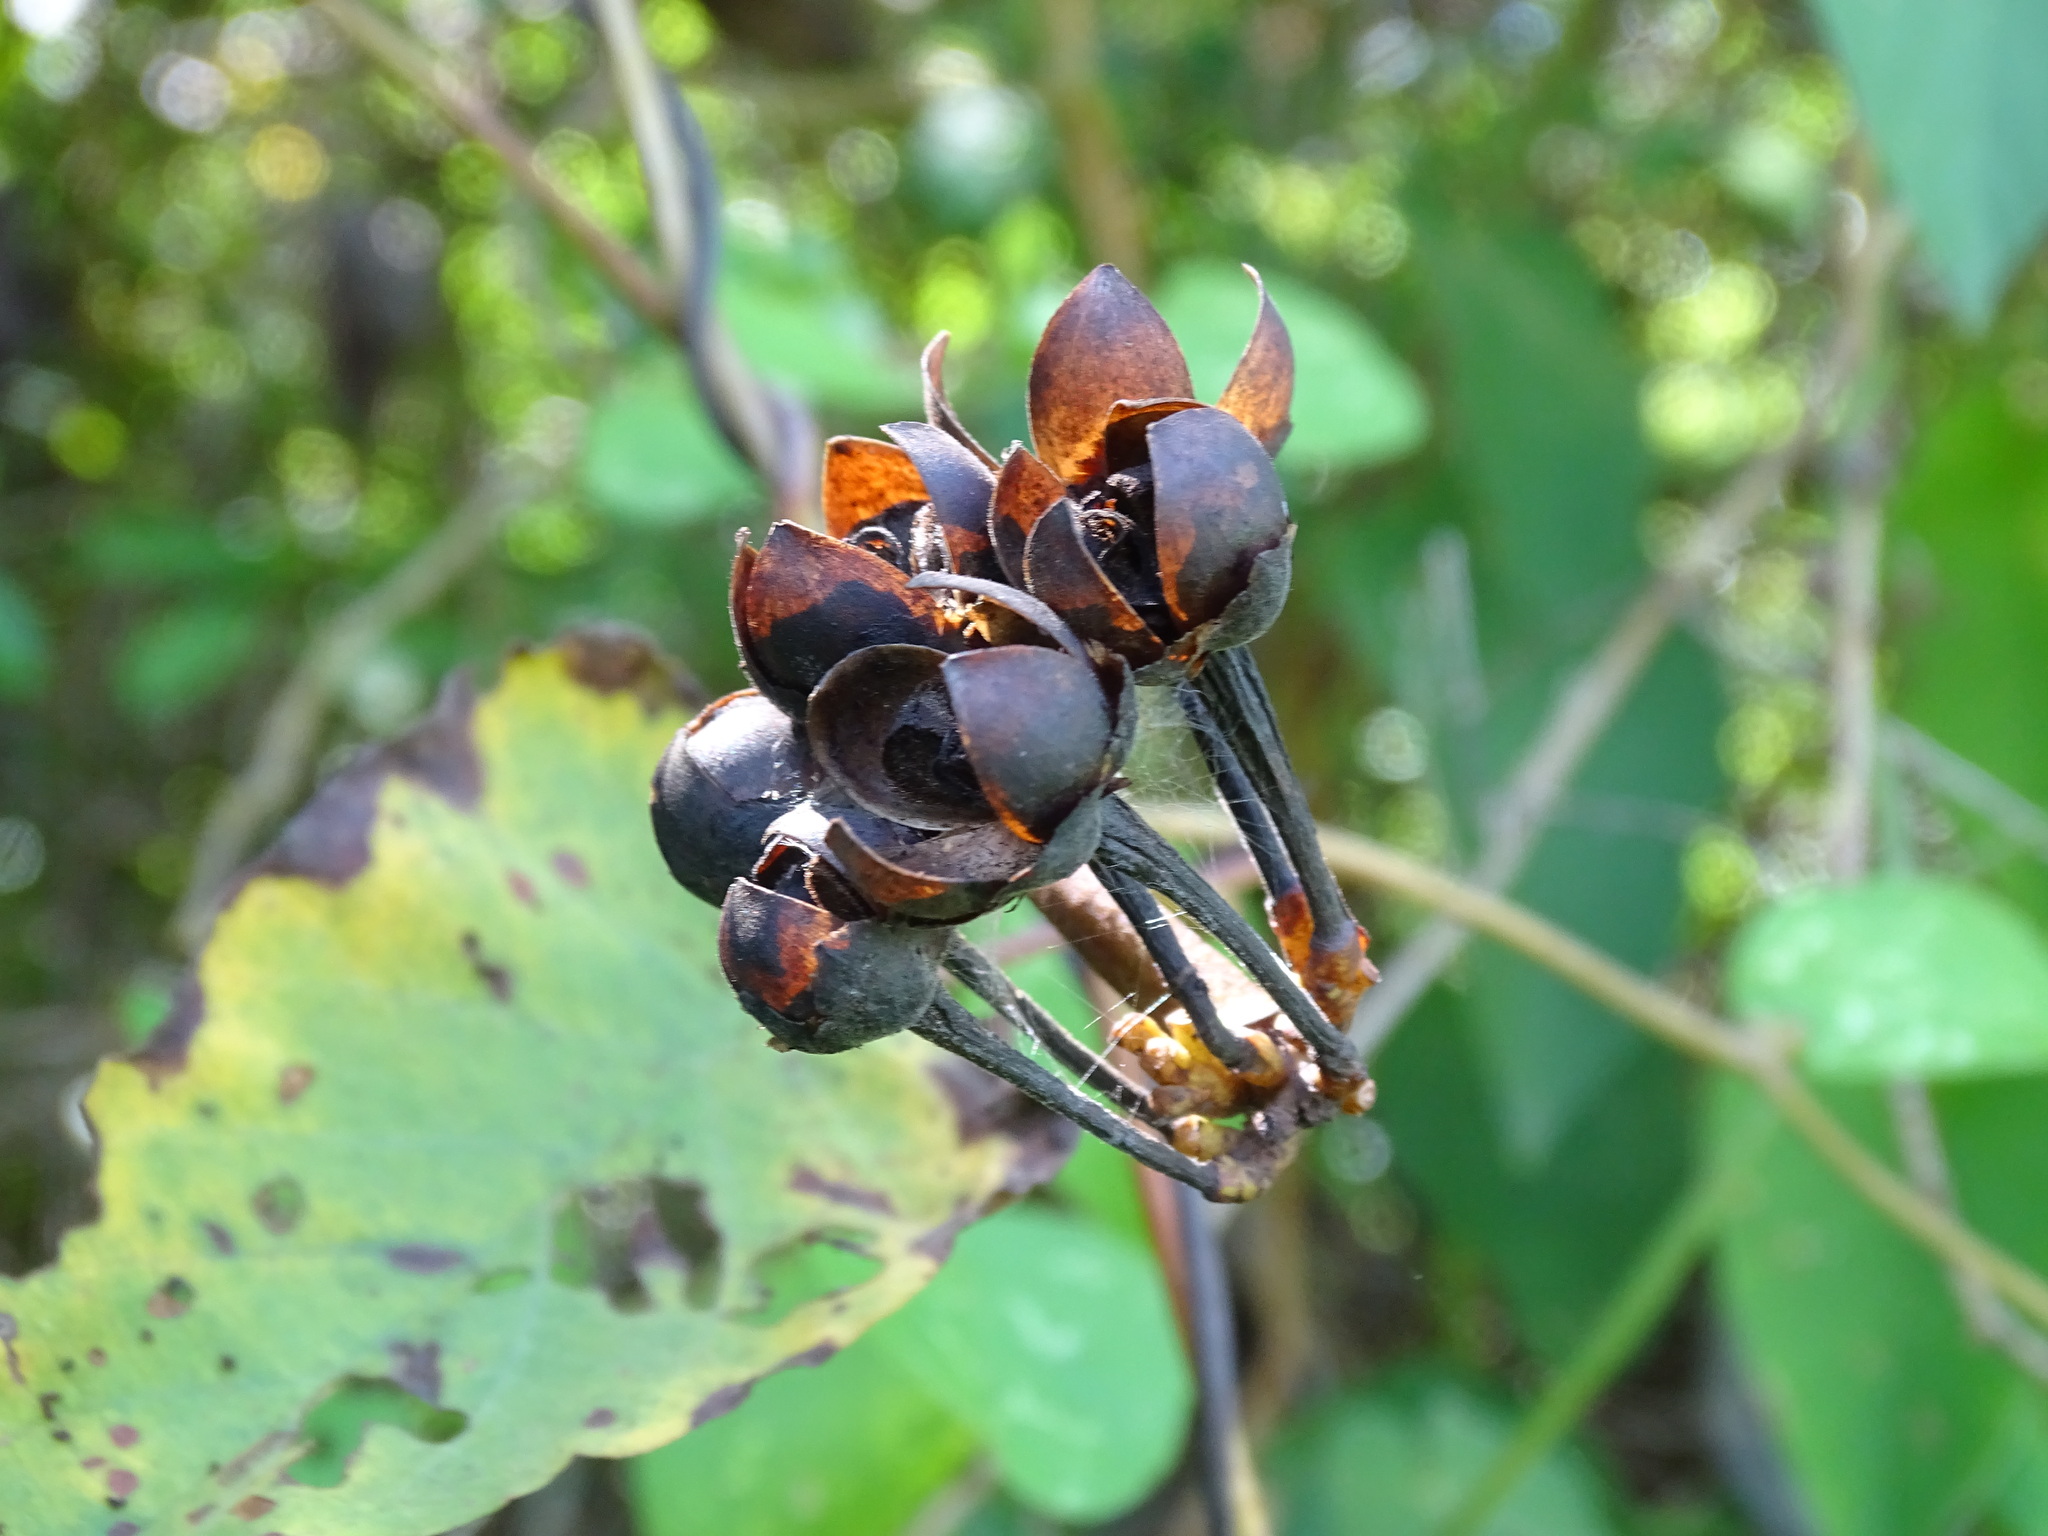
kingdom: Plantae
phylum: Tracheophyta
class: Magnoliopsida
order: Solanales
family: Convolvulaceae
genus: Camonea
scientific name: Camonea umbellata
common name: Hogvine
